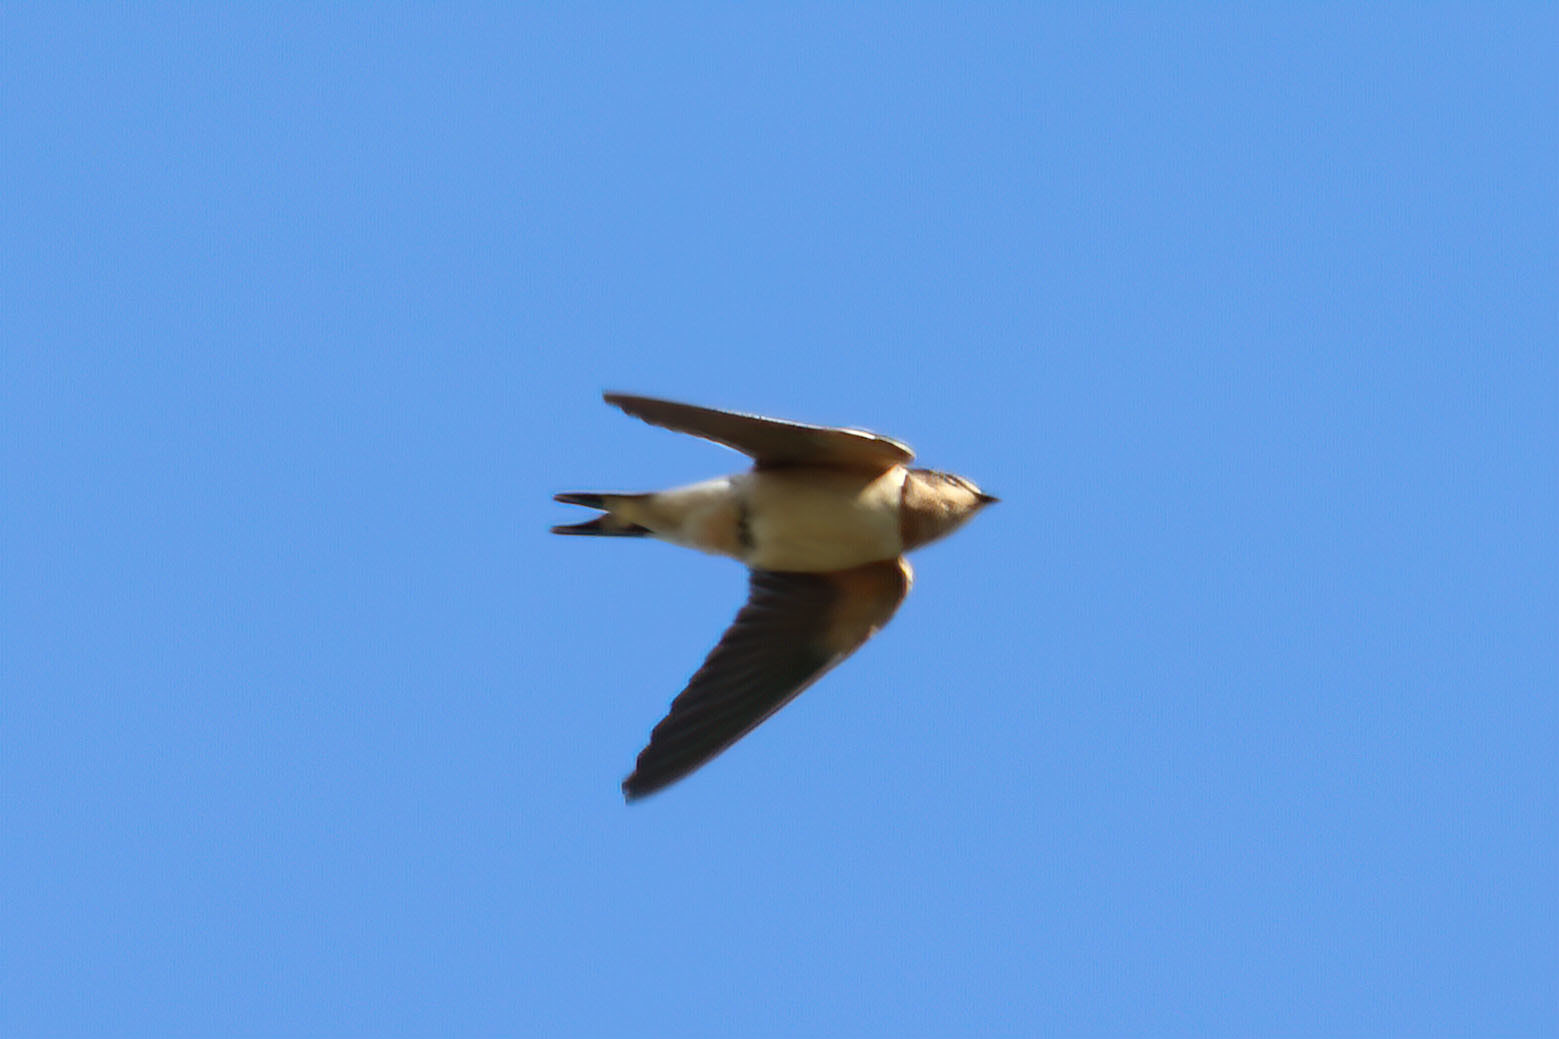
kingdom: Animalia
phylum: Chordata
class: Aves
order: Passeriformes
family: Hirundinidae
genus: Hirundo
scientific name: Hirundo rustica
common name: Barn swallow
